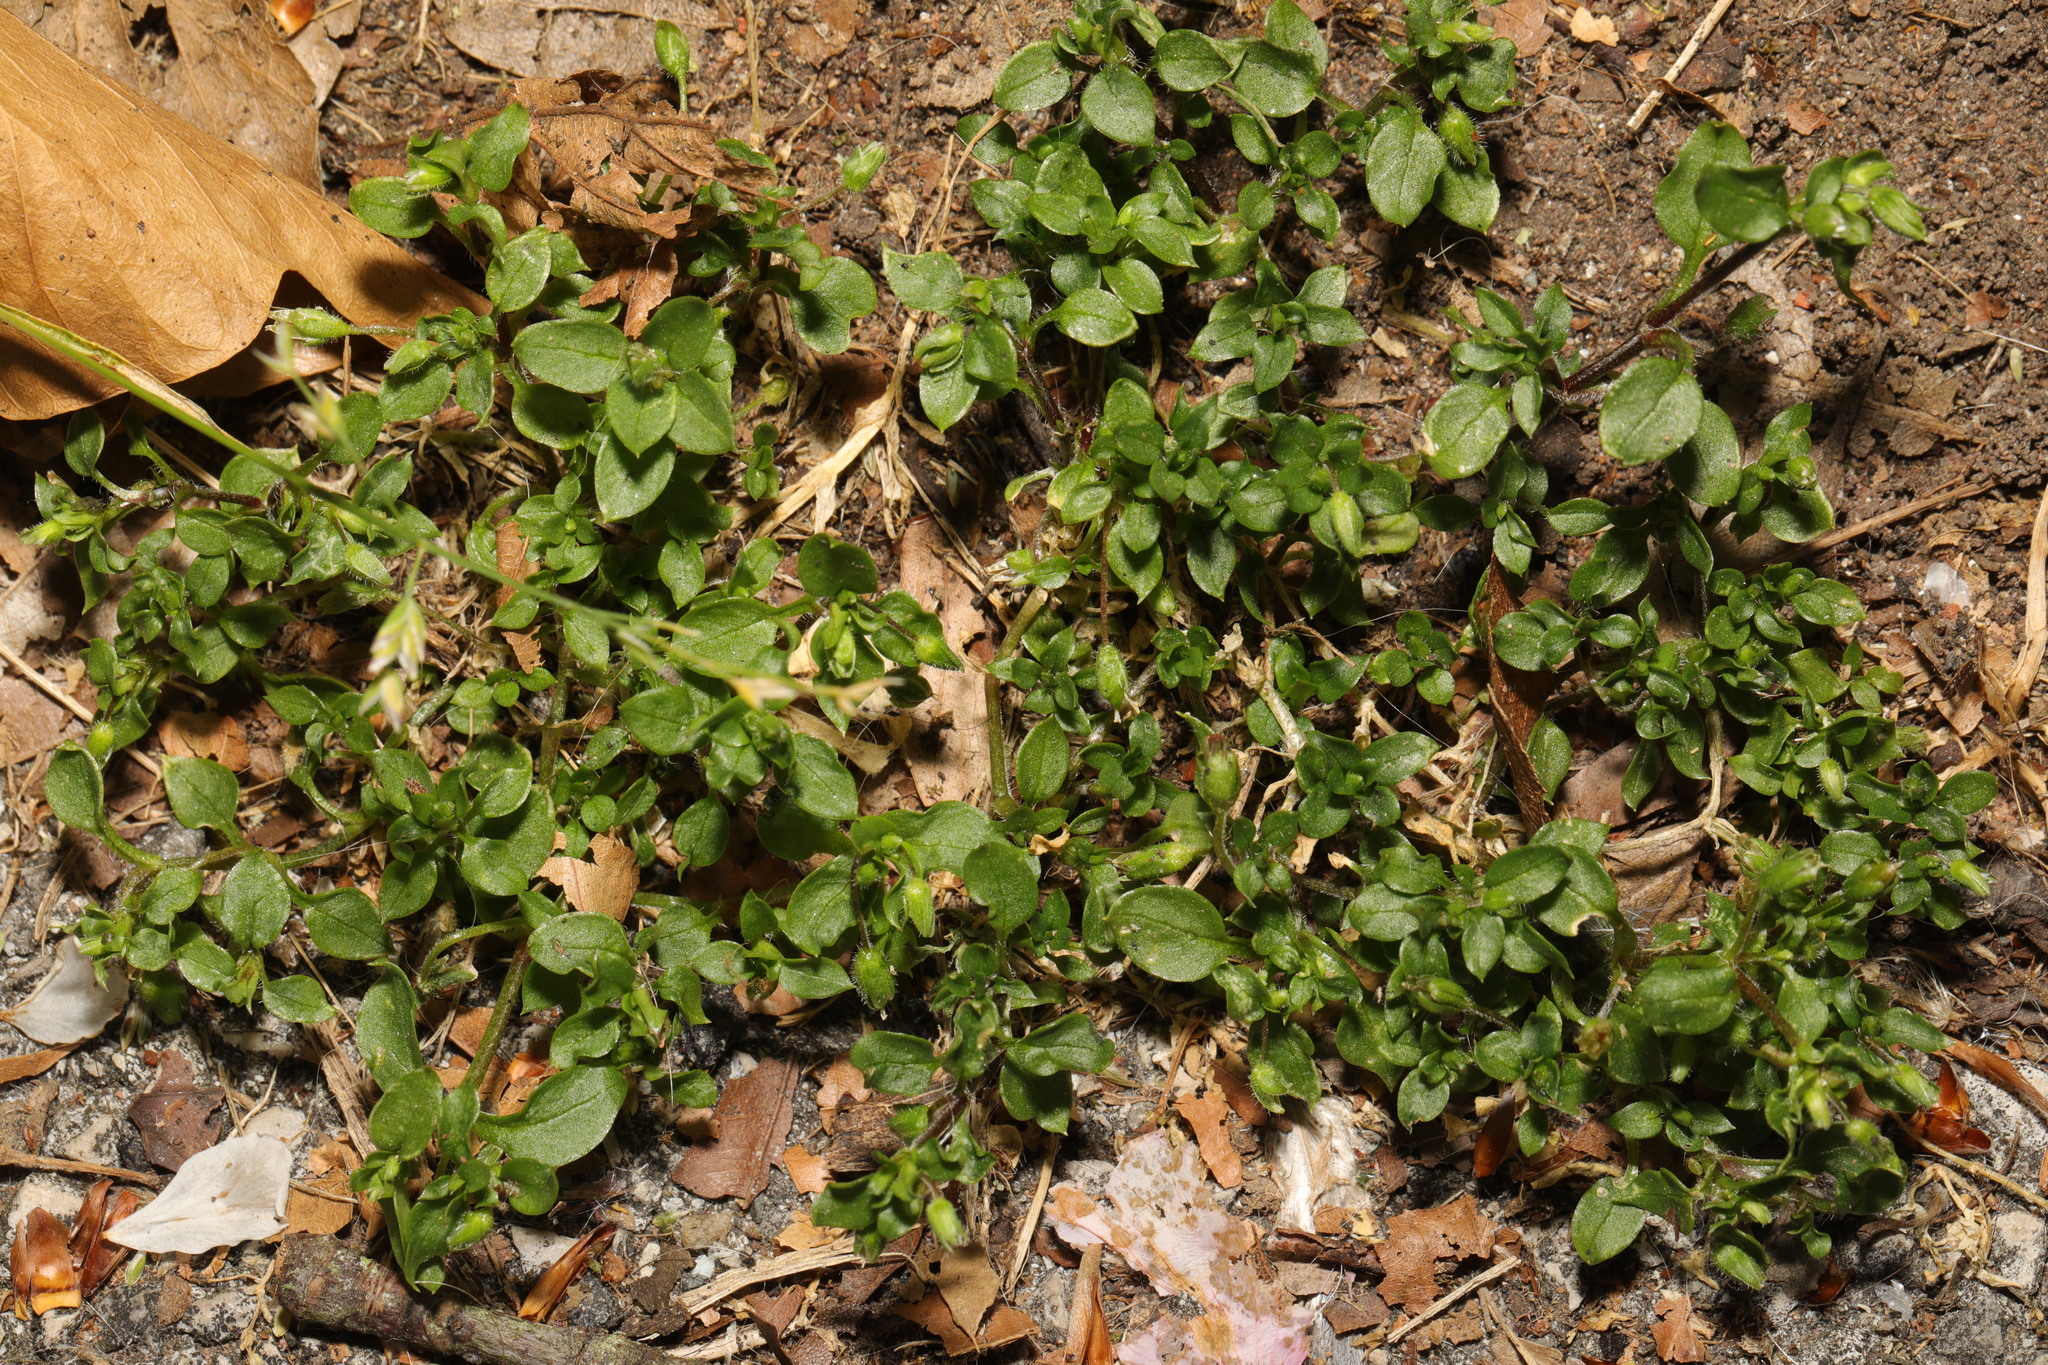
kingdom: Plantae
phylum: Tracheophyta
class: Magnoliopsida
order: Caryophyllales
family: Caryophyllaceae
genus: Stellaria
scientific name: Stellaria media
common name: Common chickweed
